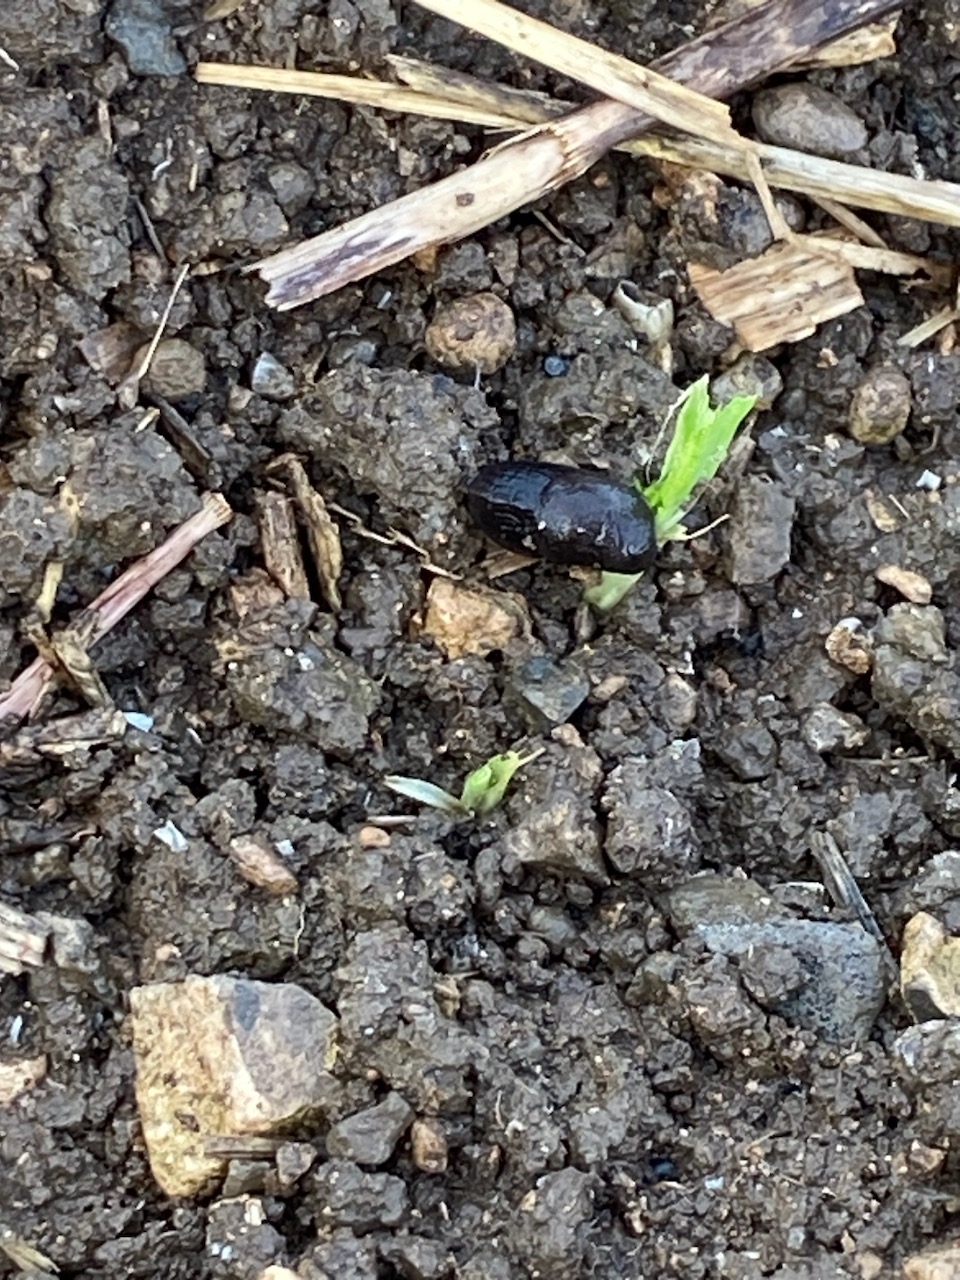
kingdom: Animalia
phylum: Mollusca
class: Gastropoda
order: Stylommatophora
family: Milacidae
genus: Milax
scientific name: Milax gagates
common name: Greenhouse slug
